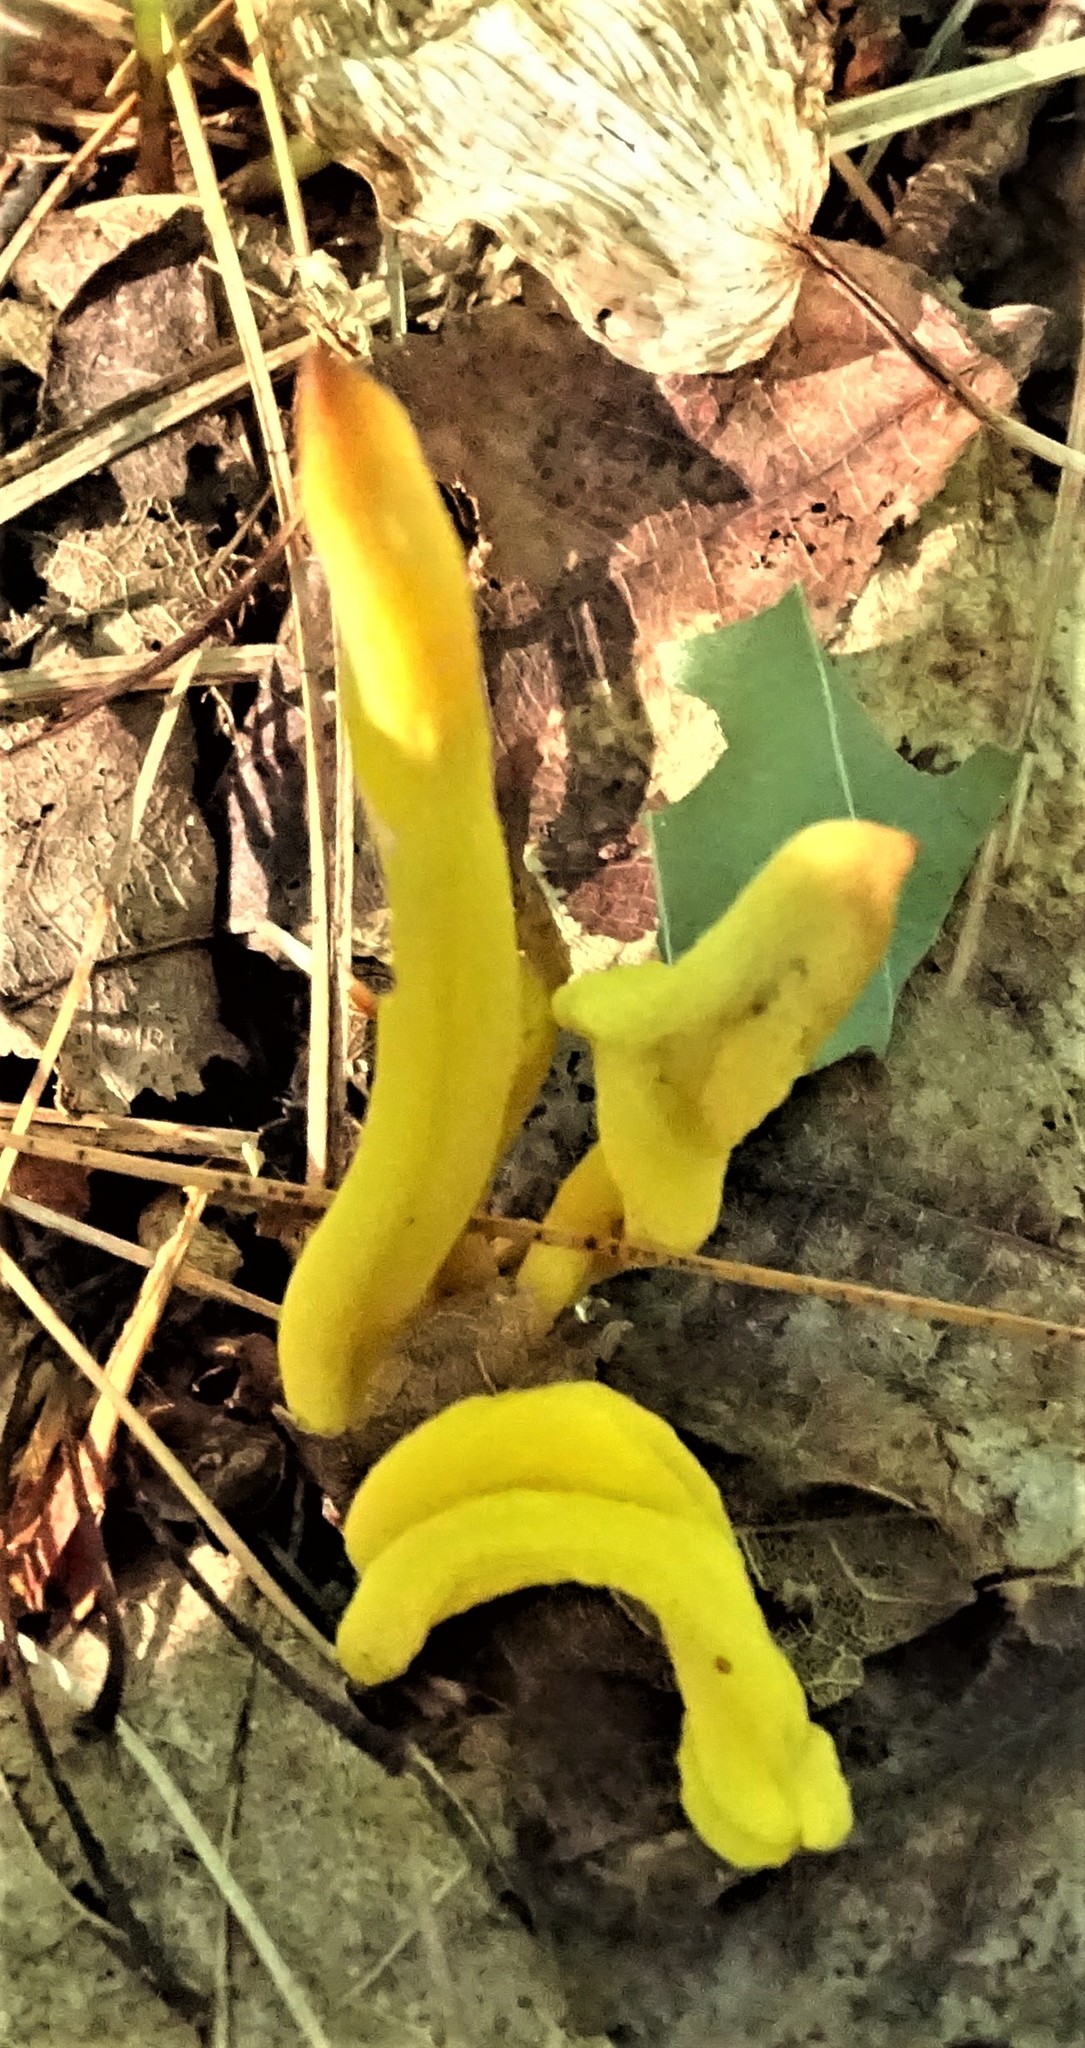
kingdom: Fungi
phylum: Basidiomycota
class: Agaricomycetes
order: Agaricales
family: Clavariaceae
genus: Clavulinopsis
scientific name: Clavulinopsis fusiformis
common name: Golden spindles
